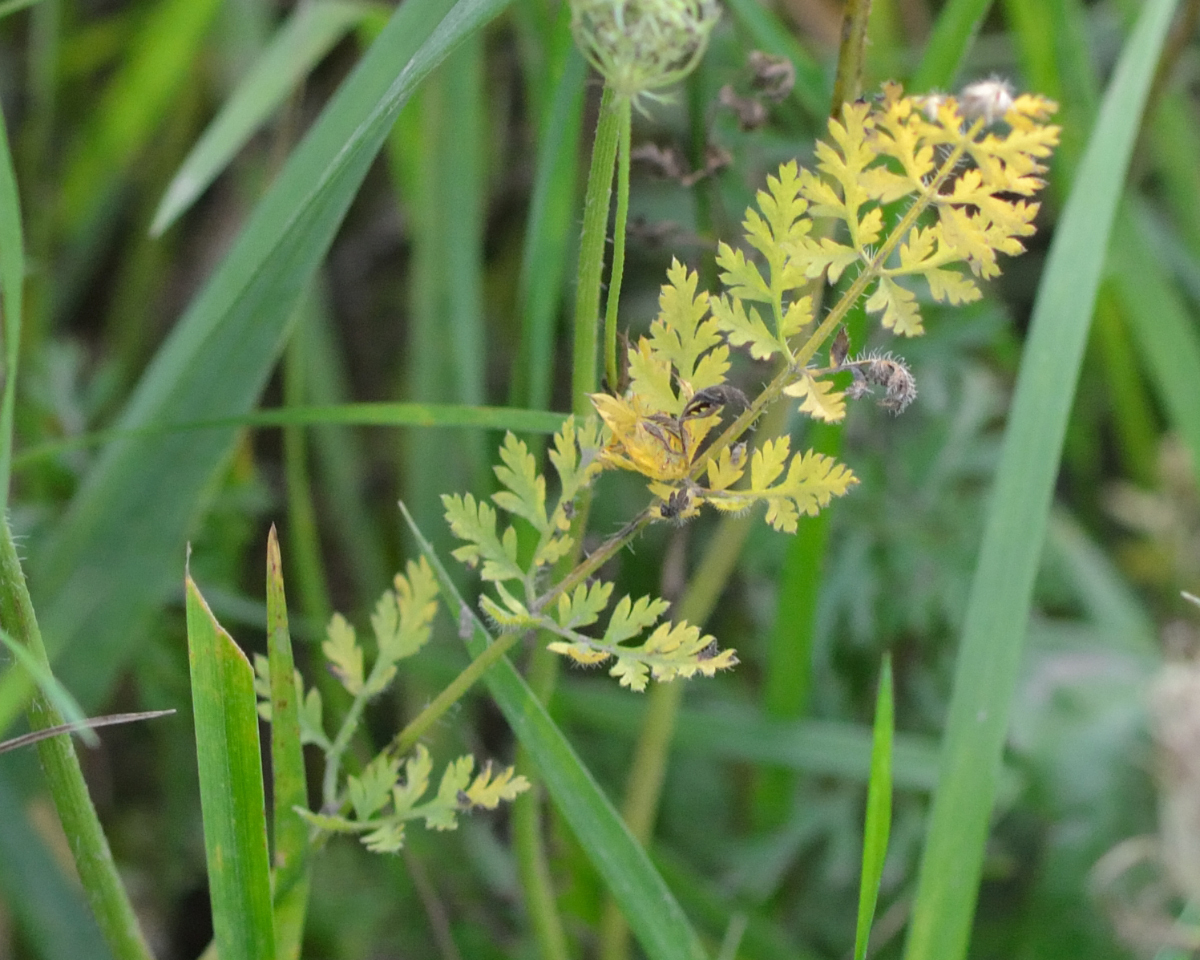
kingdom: Plantae
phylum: Tracheophyta
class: Magnoliopsida
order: Apiales
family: Apiaceae
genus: Daucus
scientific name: Daucus carota
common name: Wild carrot
